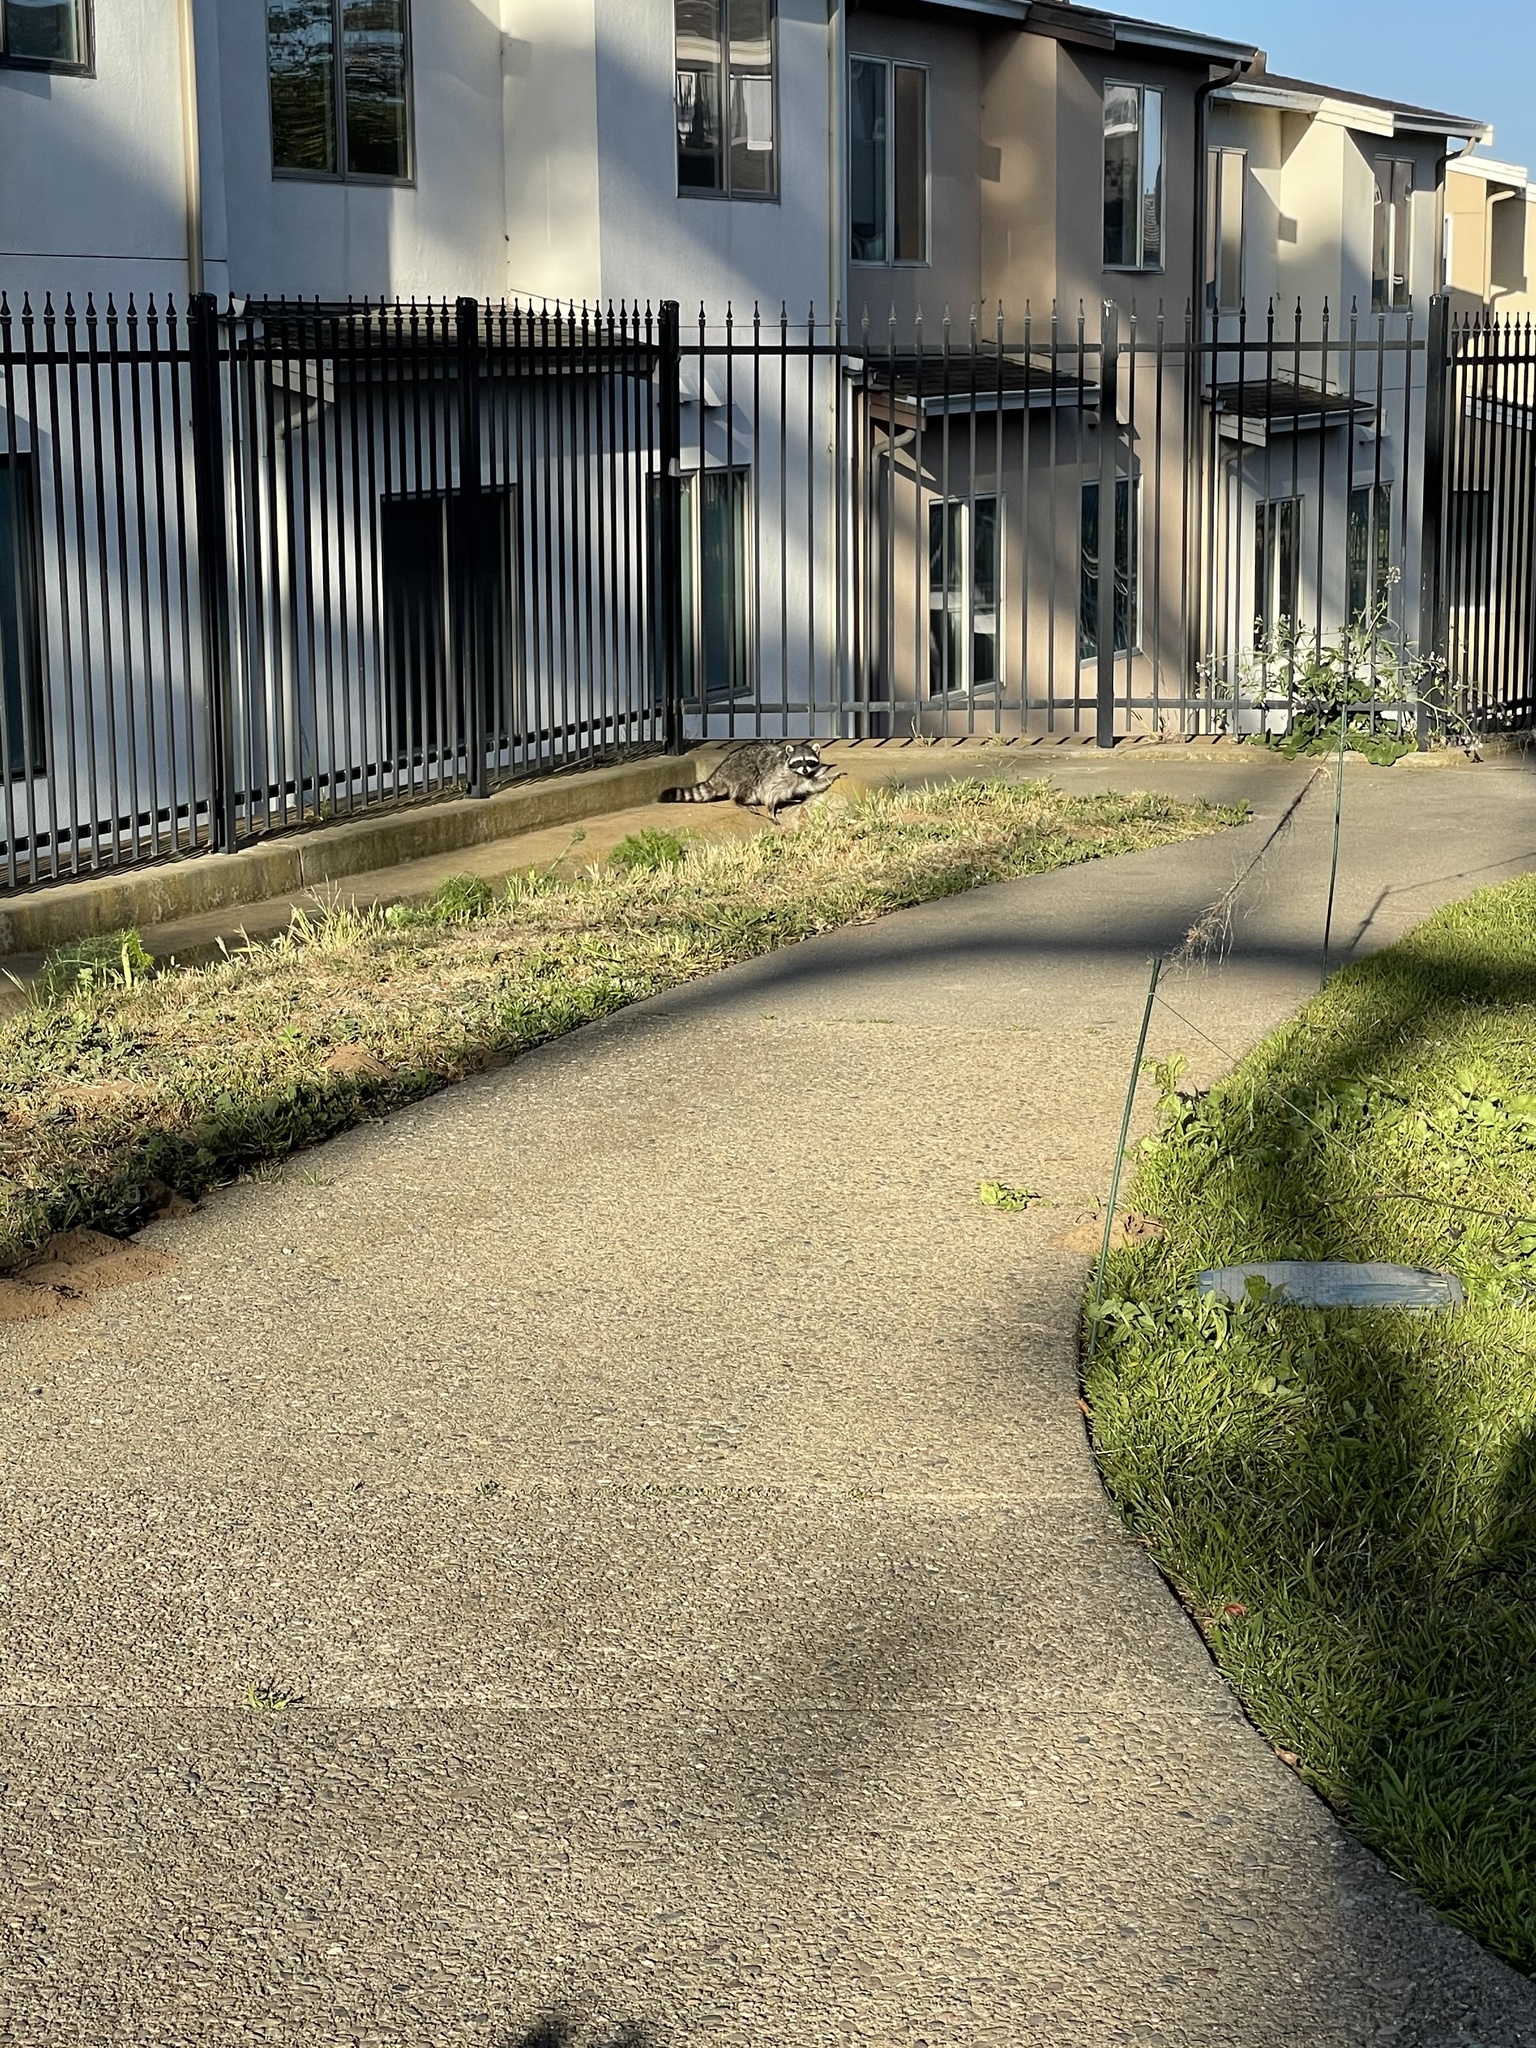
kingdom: Animalia
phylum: Chordata
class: Mammalia
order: Carnivora
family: Procyonidae
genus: Procyon
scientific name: Procyon lotor
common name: Raccoon
